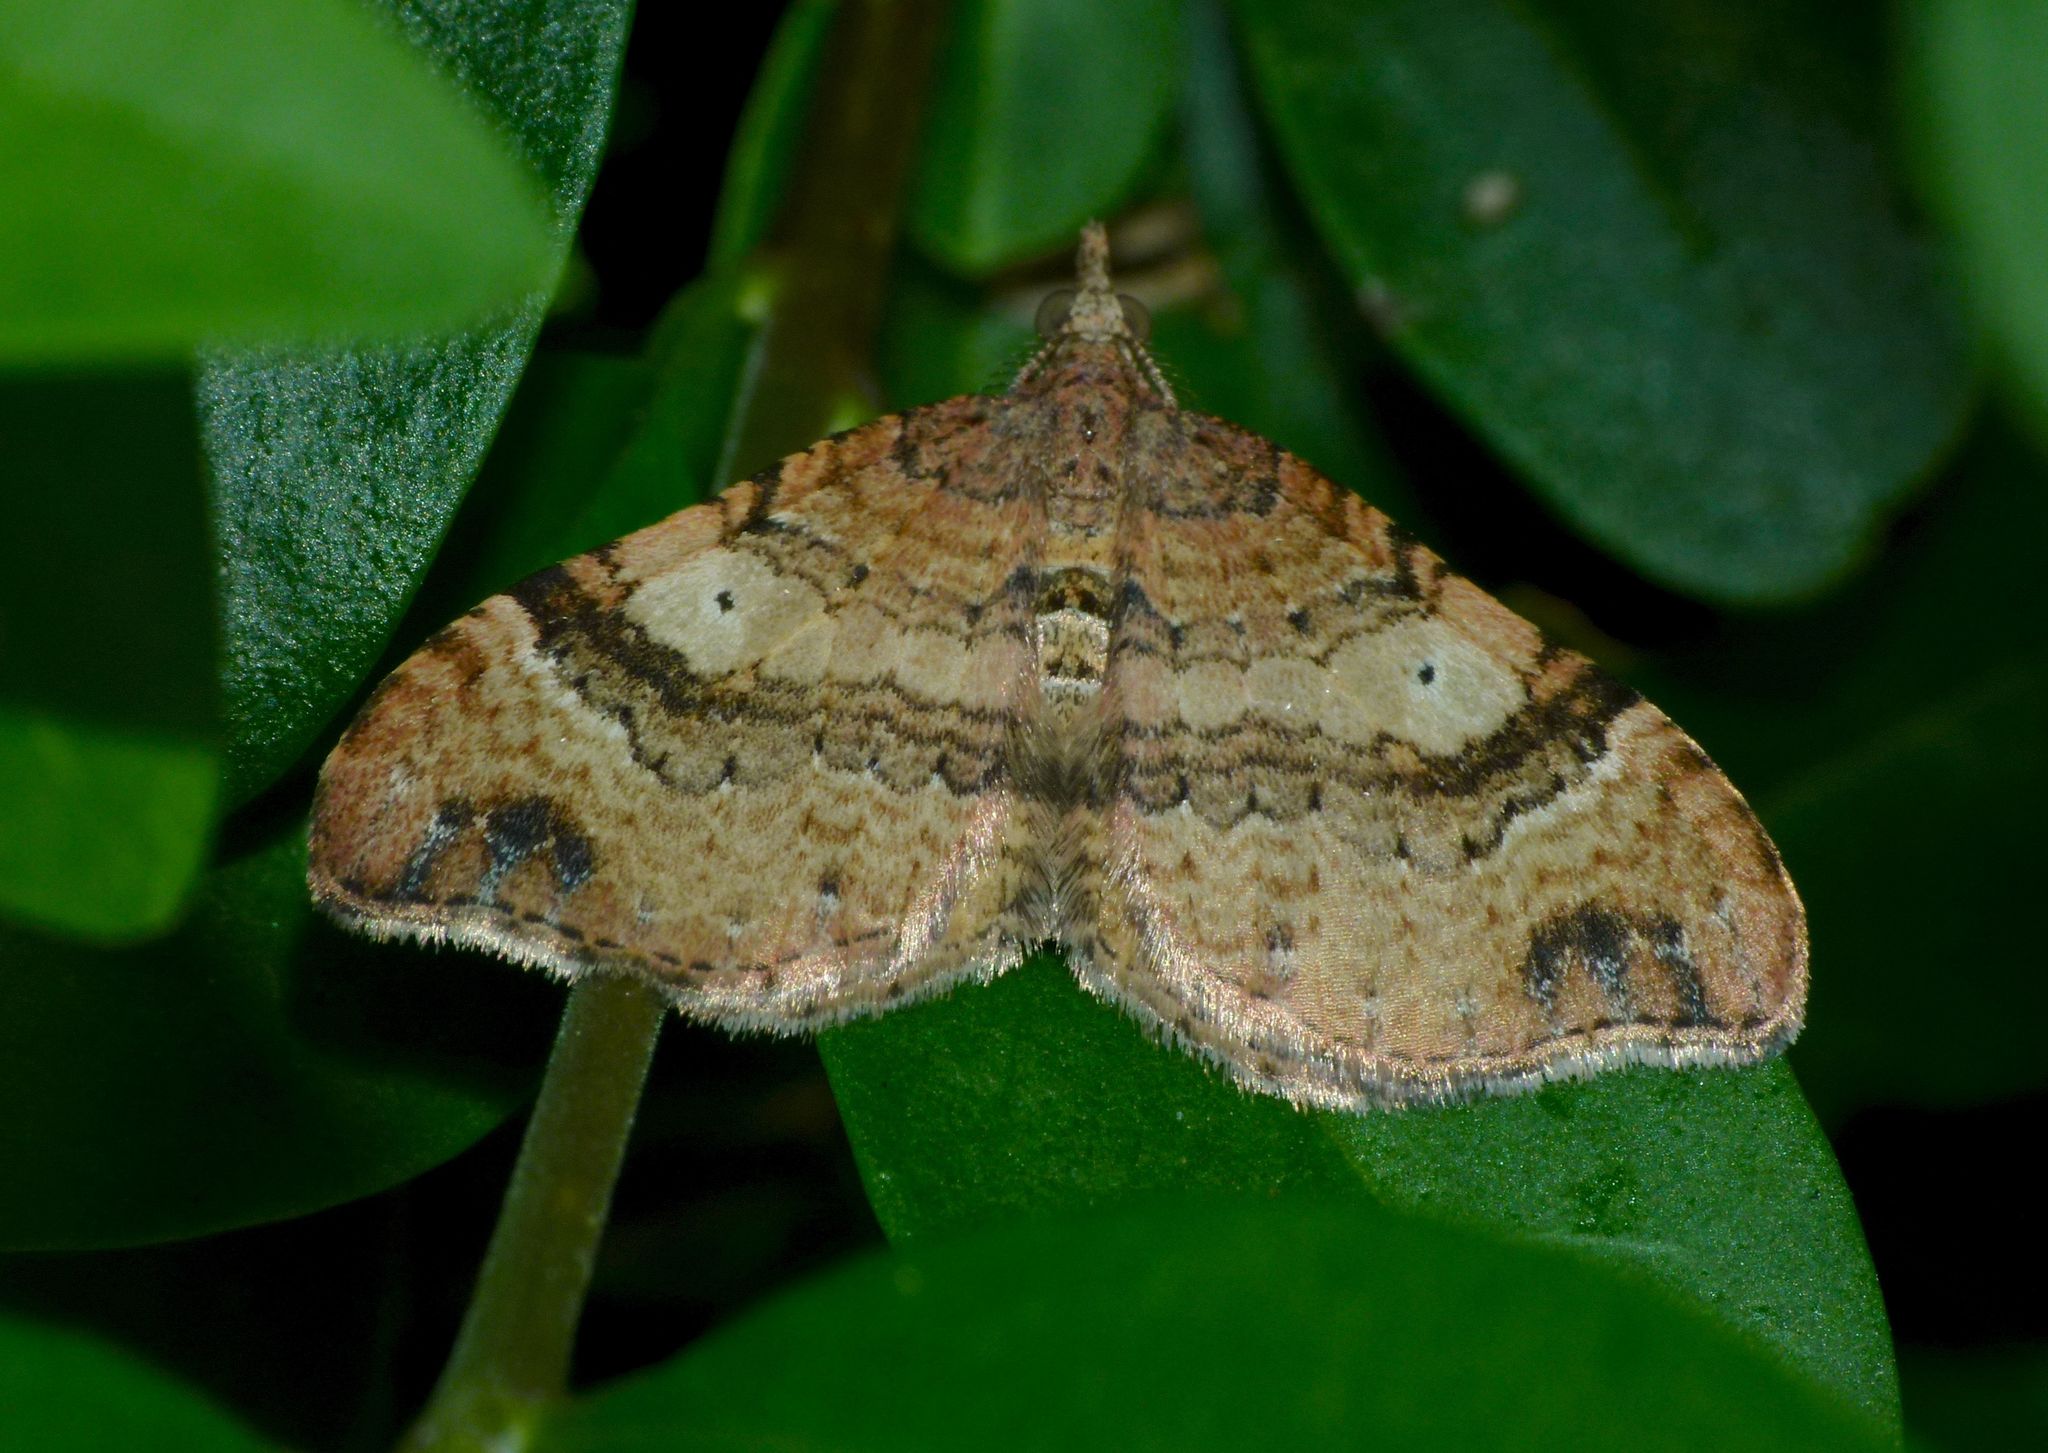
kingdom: Animalia
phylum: Arthropoda
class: Insecta
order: Lepidoptera
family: Geometridae
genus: Homodotis
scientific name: Homodotis megaspilata
